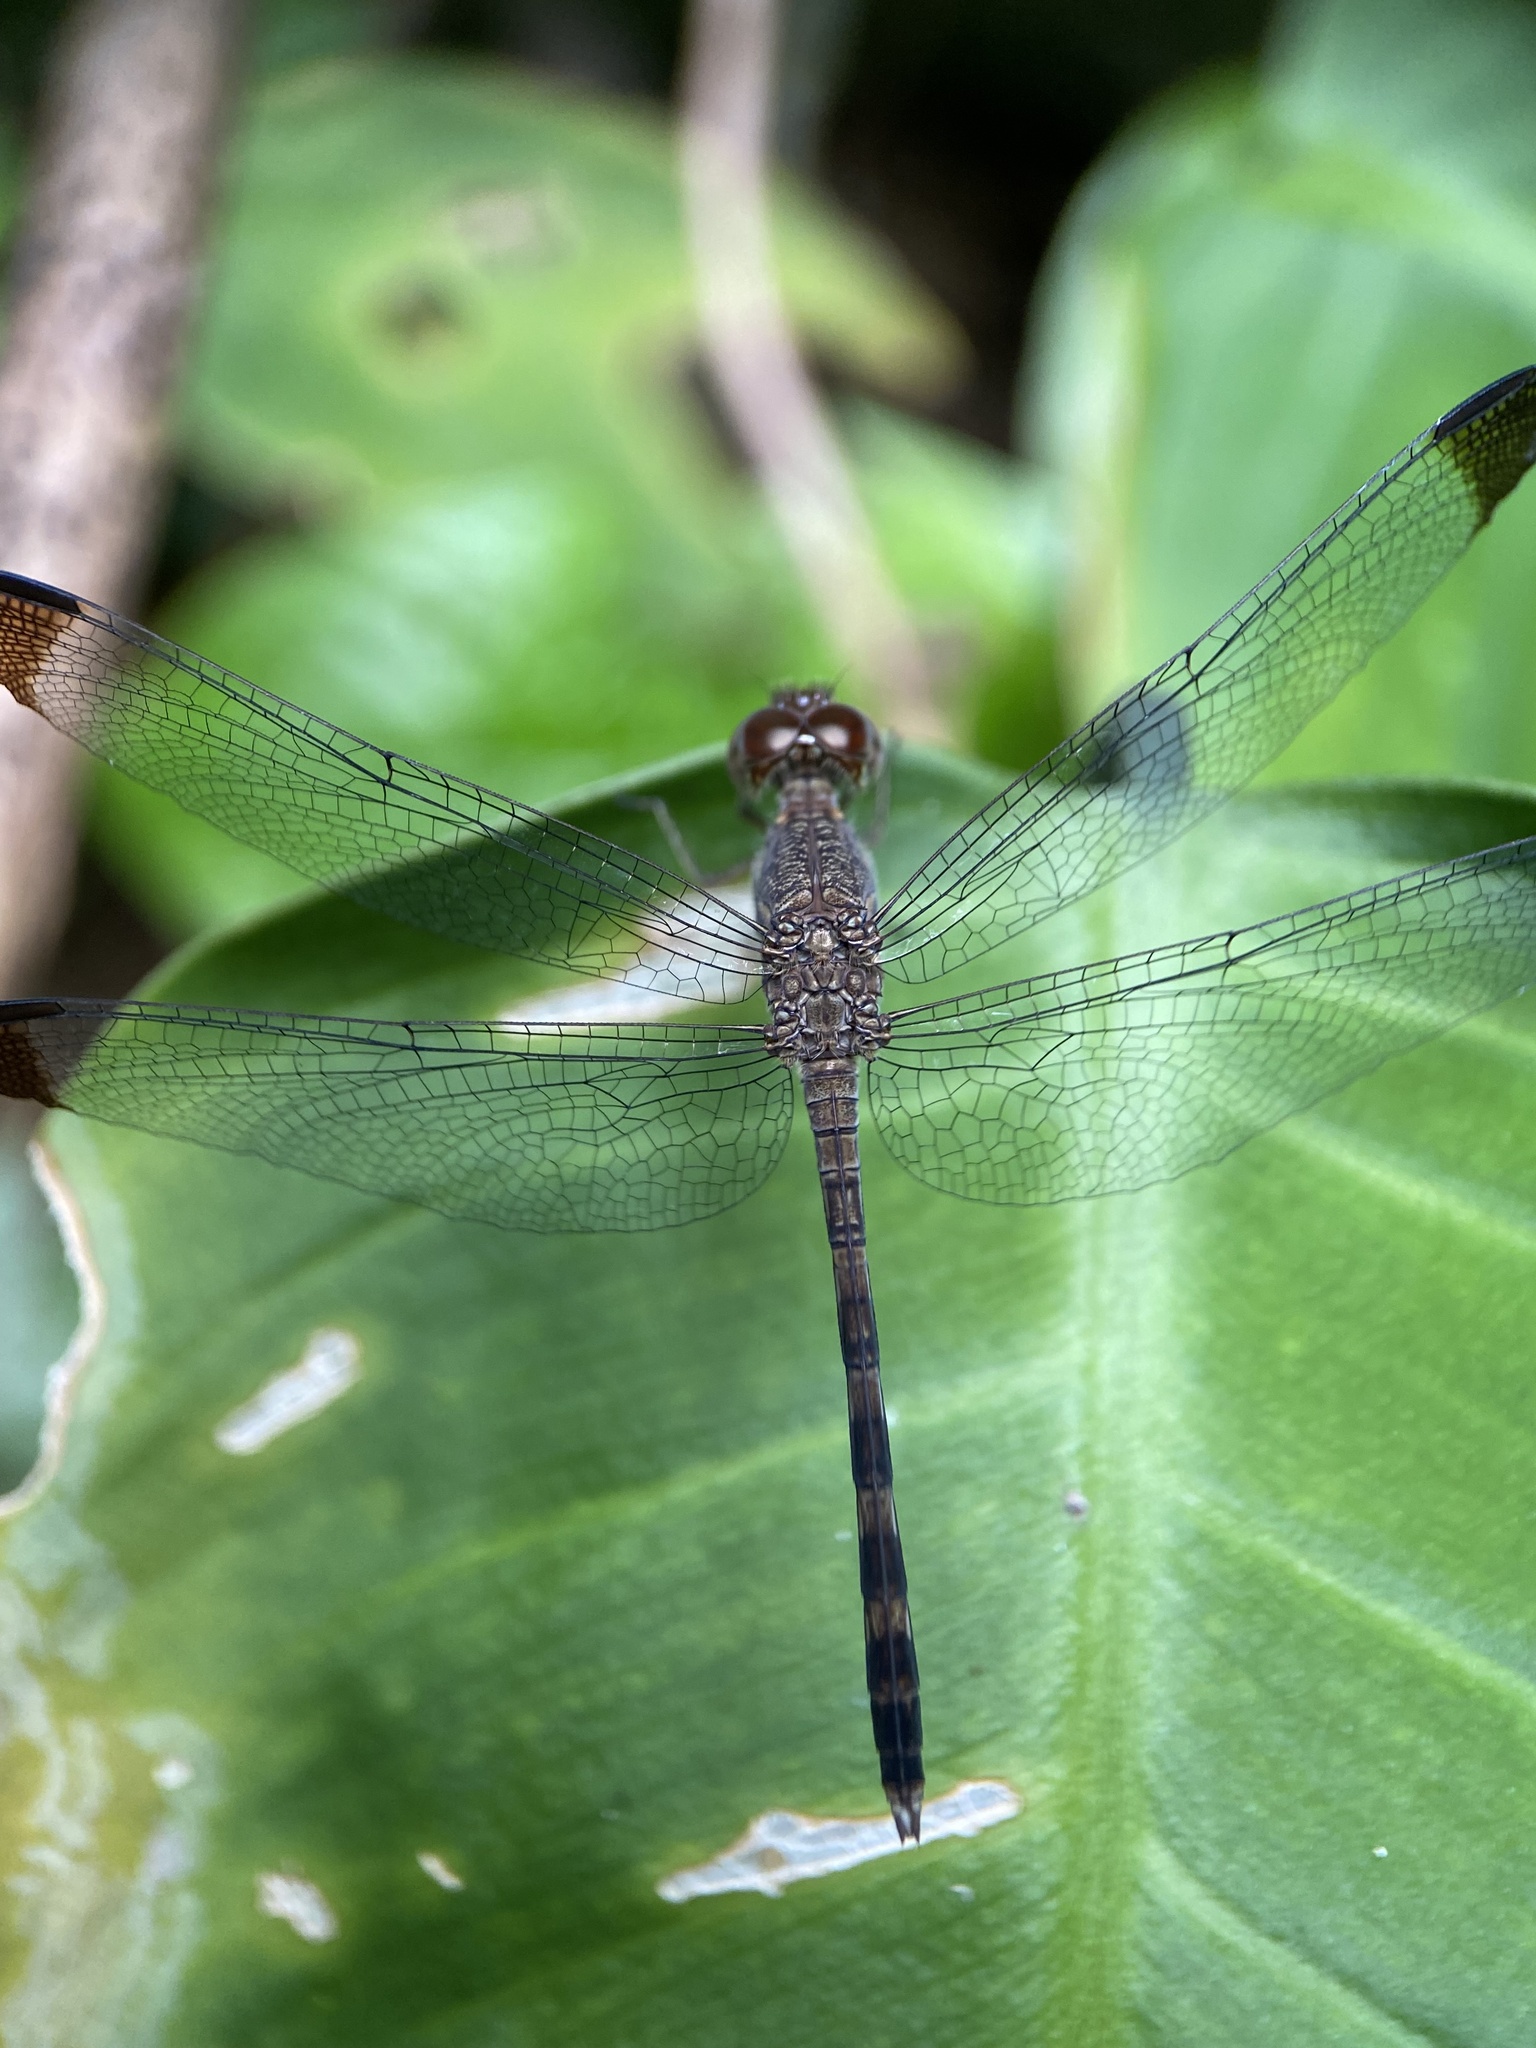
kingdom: Animalia
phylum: Arthropoda
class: Insecta
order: Odonata
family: Libellulidae
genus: Uracis
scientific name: Uracis imbuta
